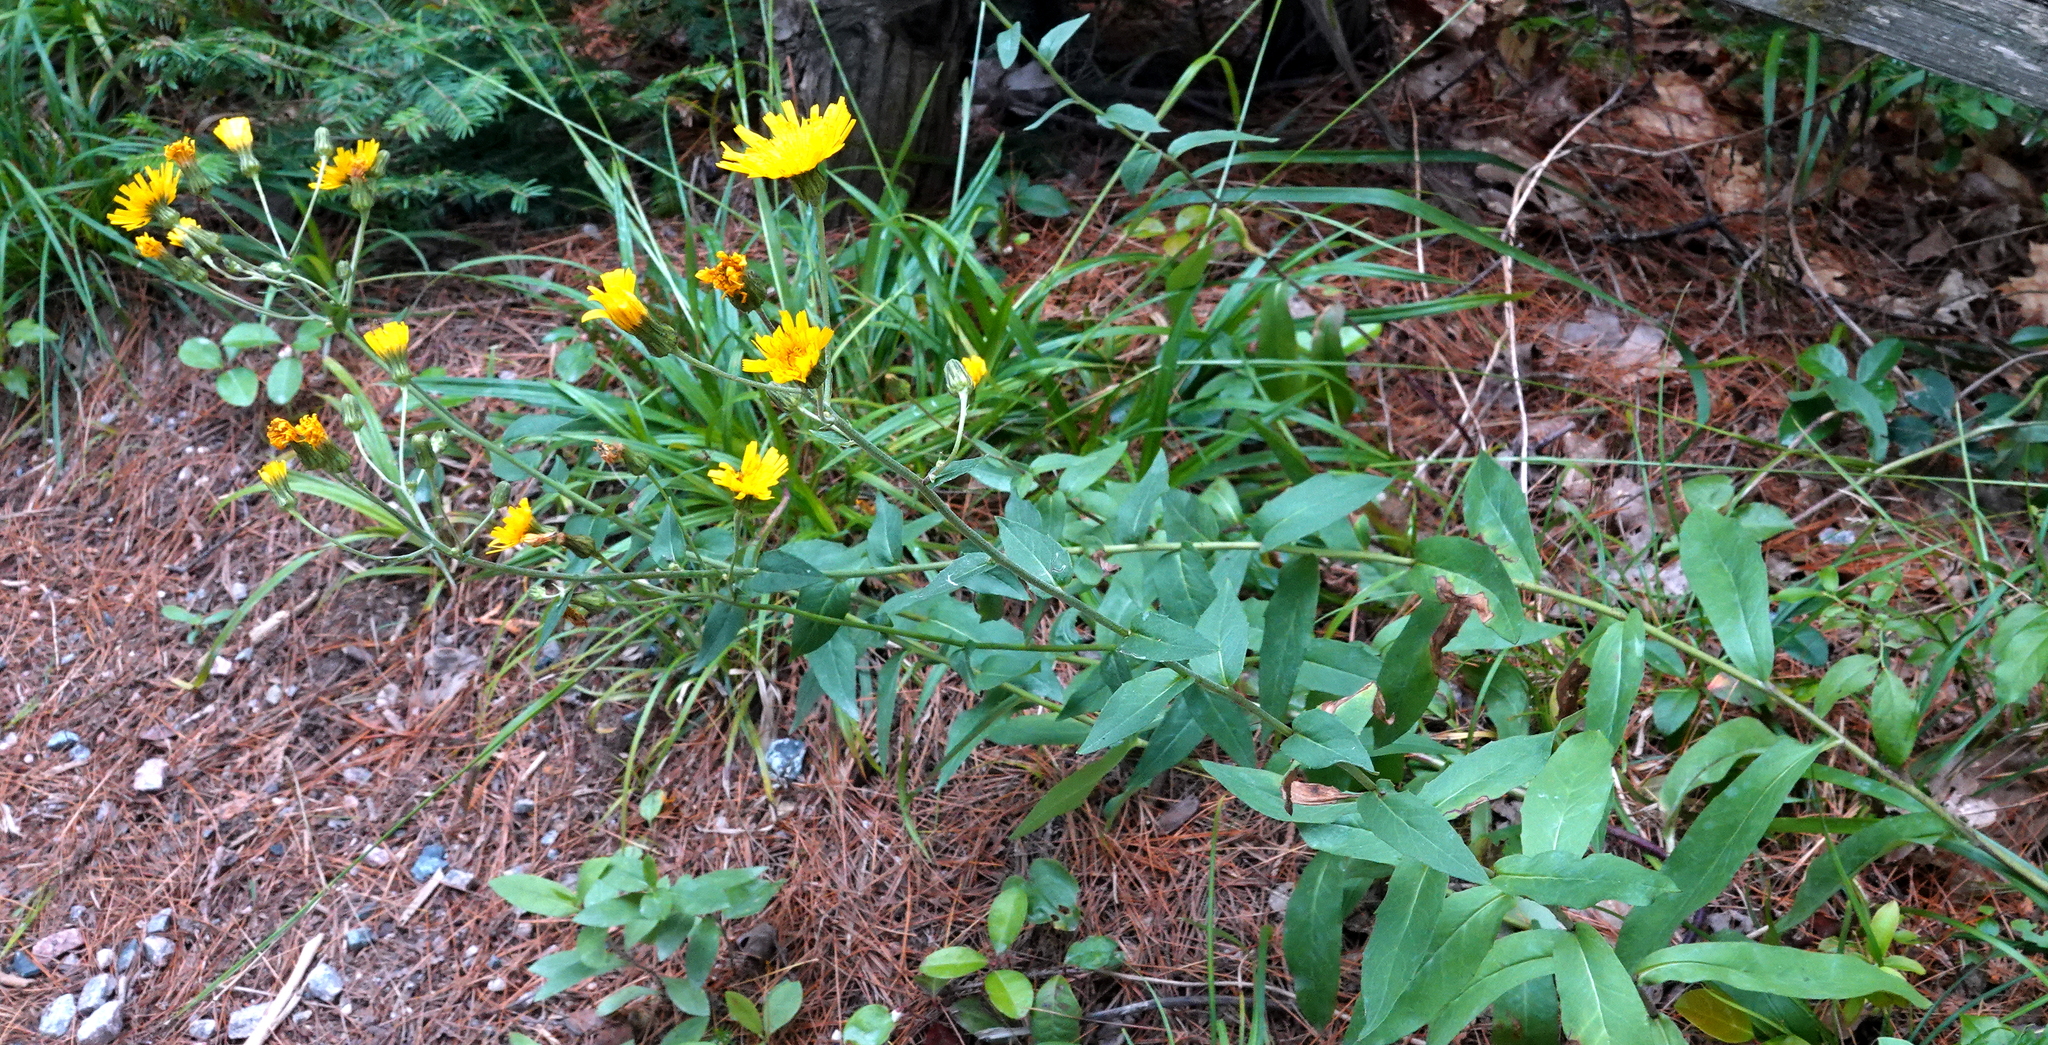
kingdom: Plantae
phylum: Tracheophyta
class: Magnoliopsida
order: Asterales
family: Asteraceae
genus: Hieracium
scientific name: Hieracium umbellatum
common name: Northern hawkweed
